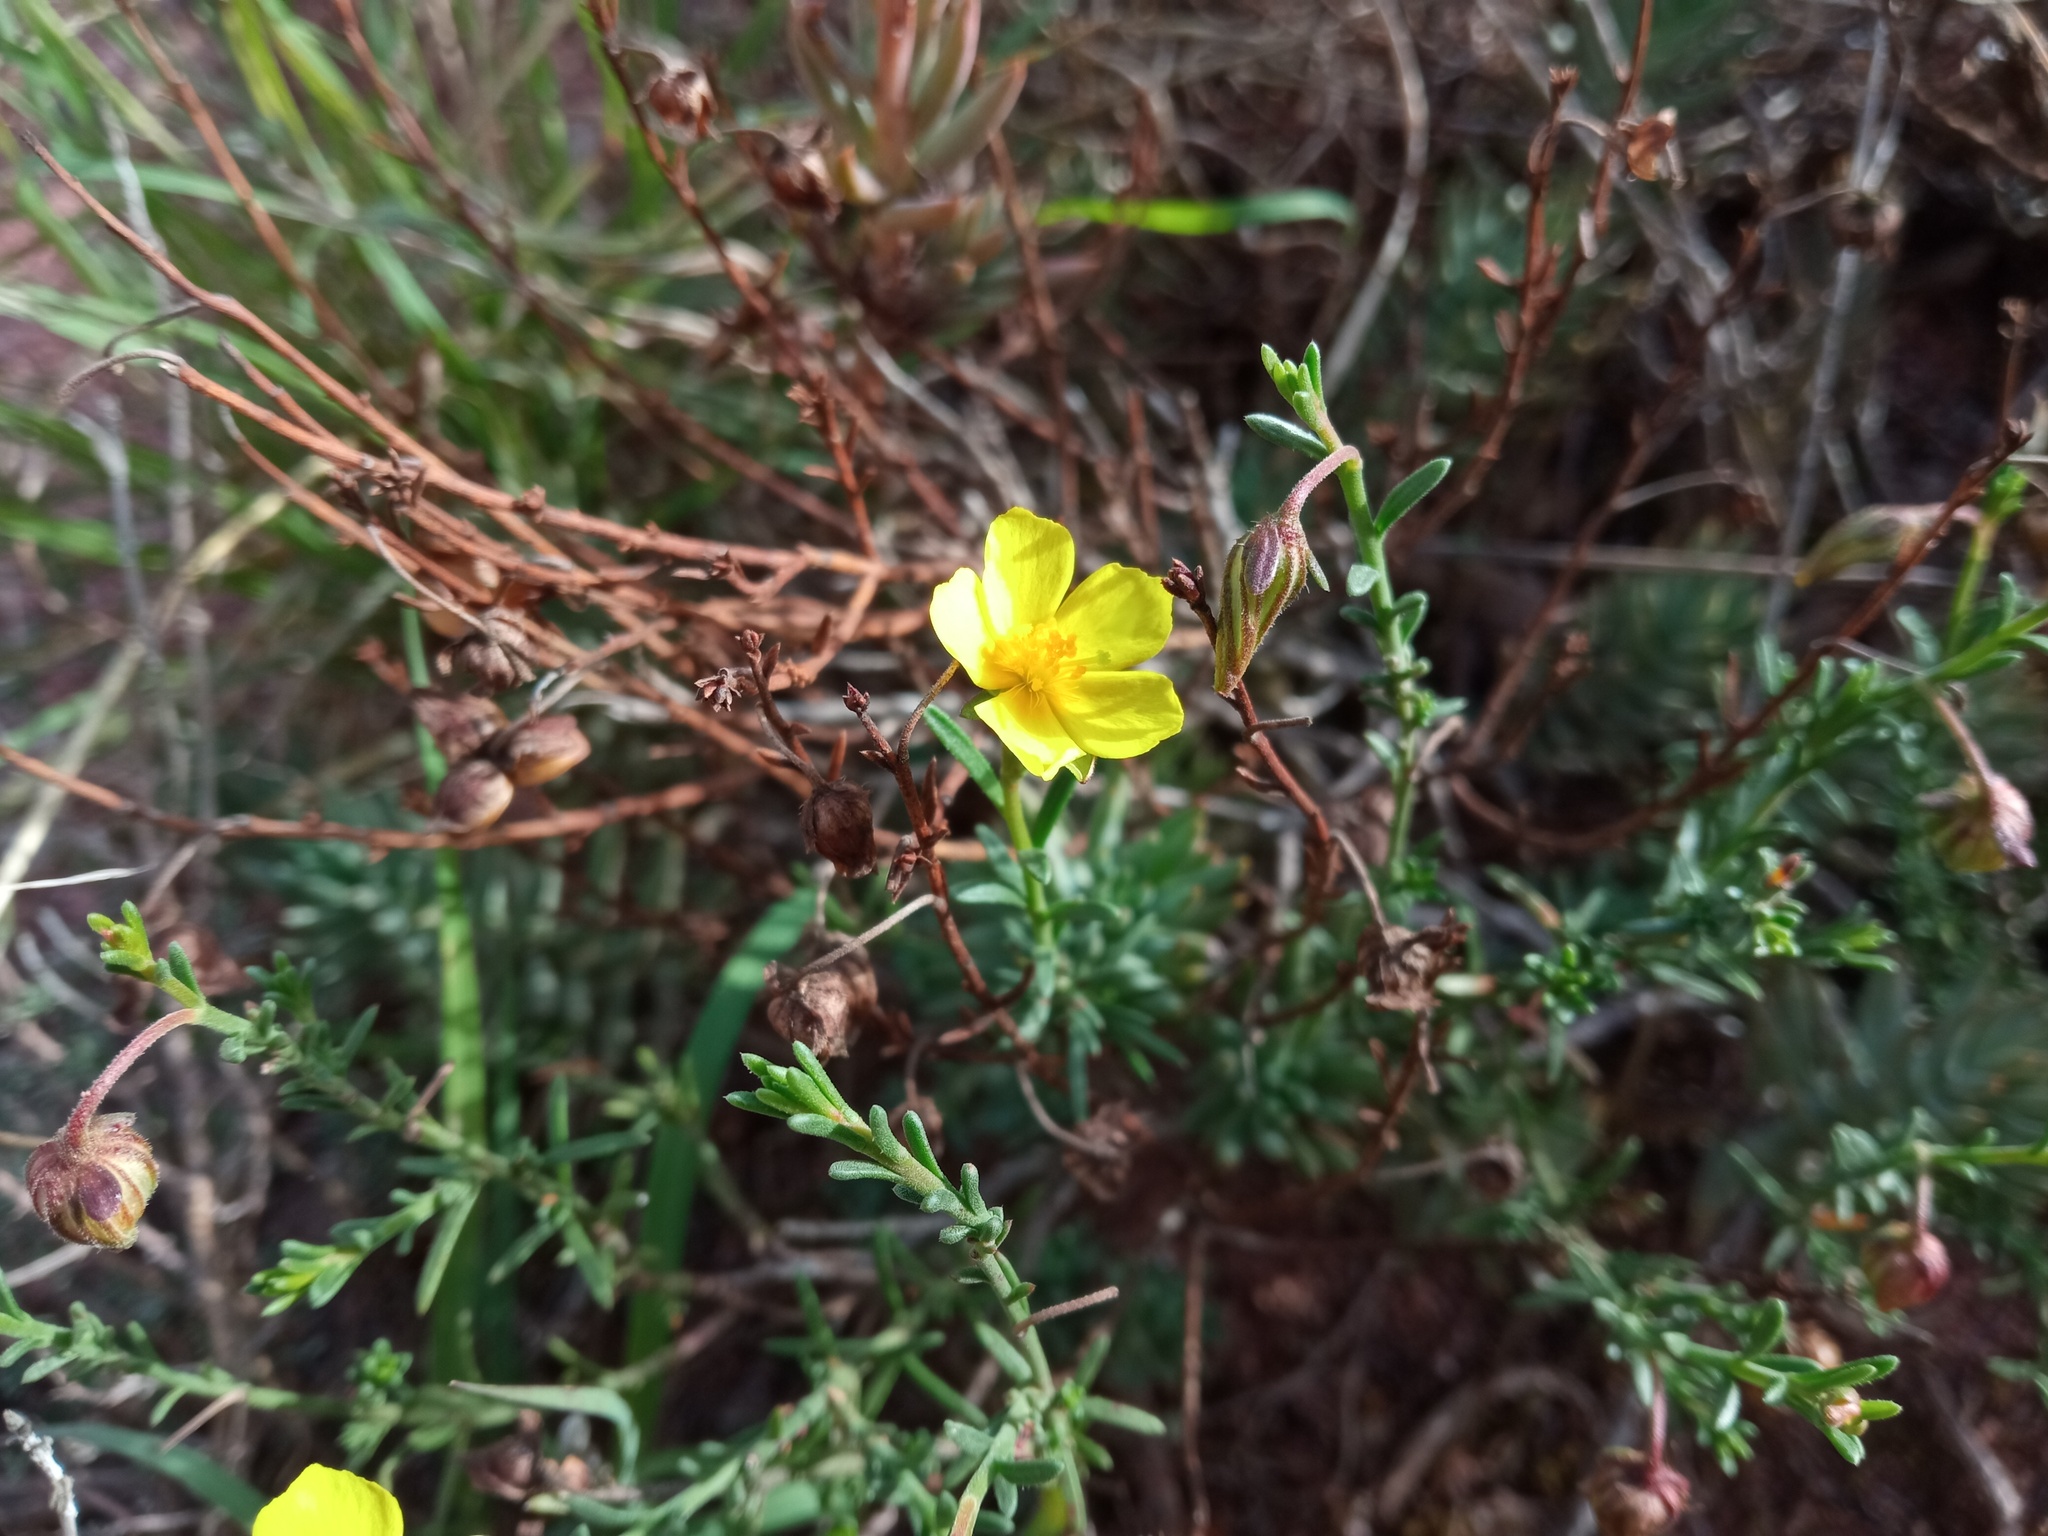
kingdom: Plantae
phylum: Tracheophyta
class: Magnoliopsida
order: Malvales
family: Cistaceae
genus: Fumana
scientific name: Fumana ericifolia
